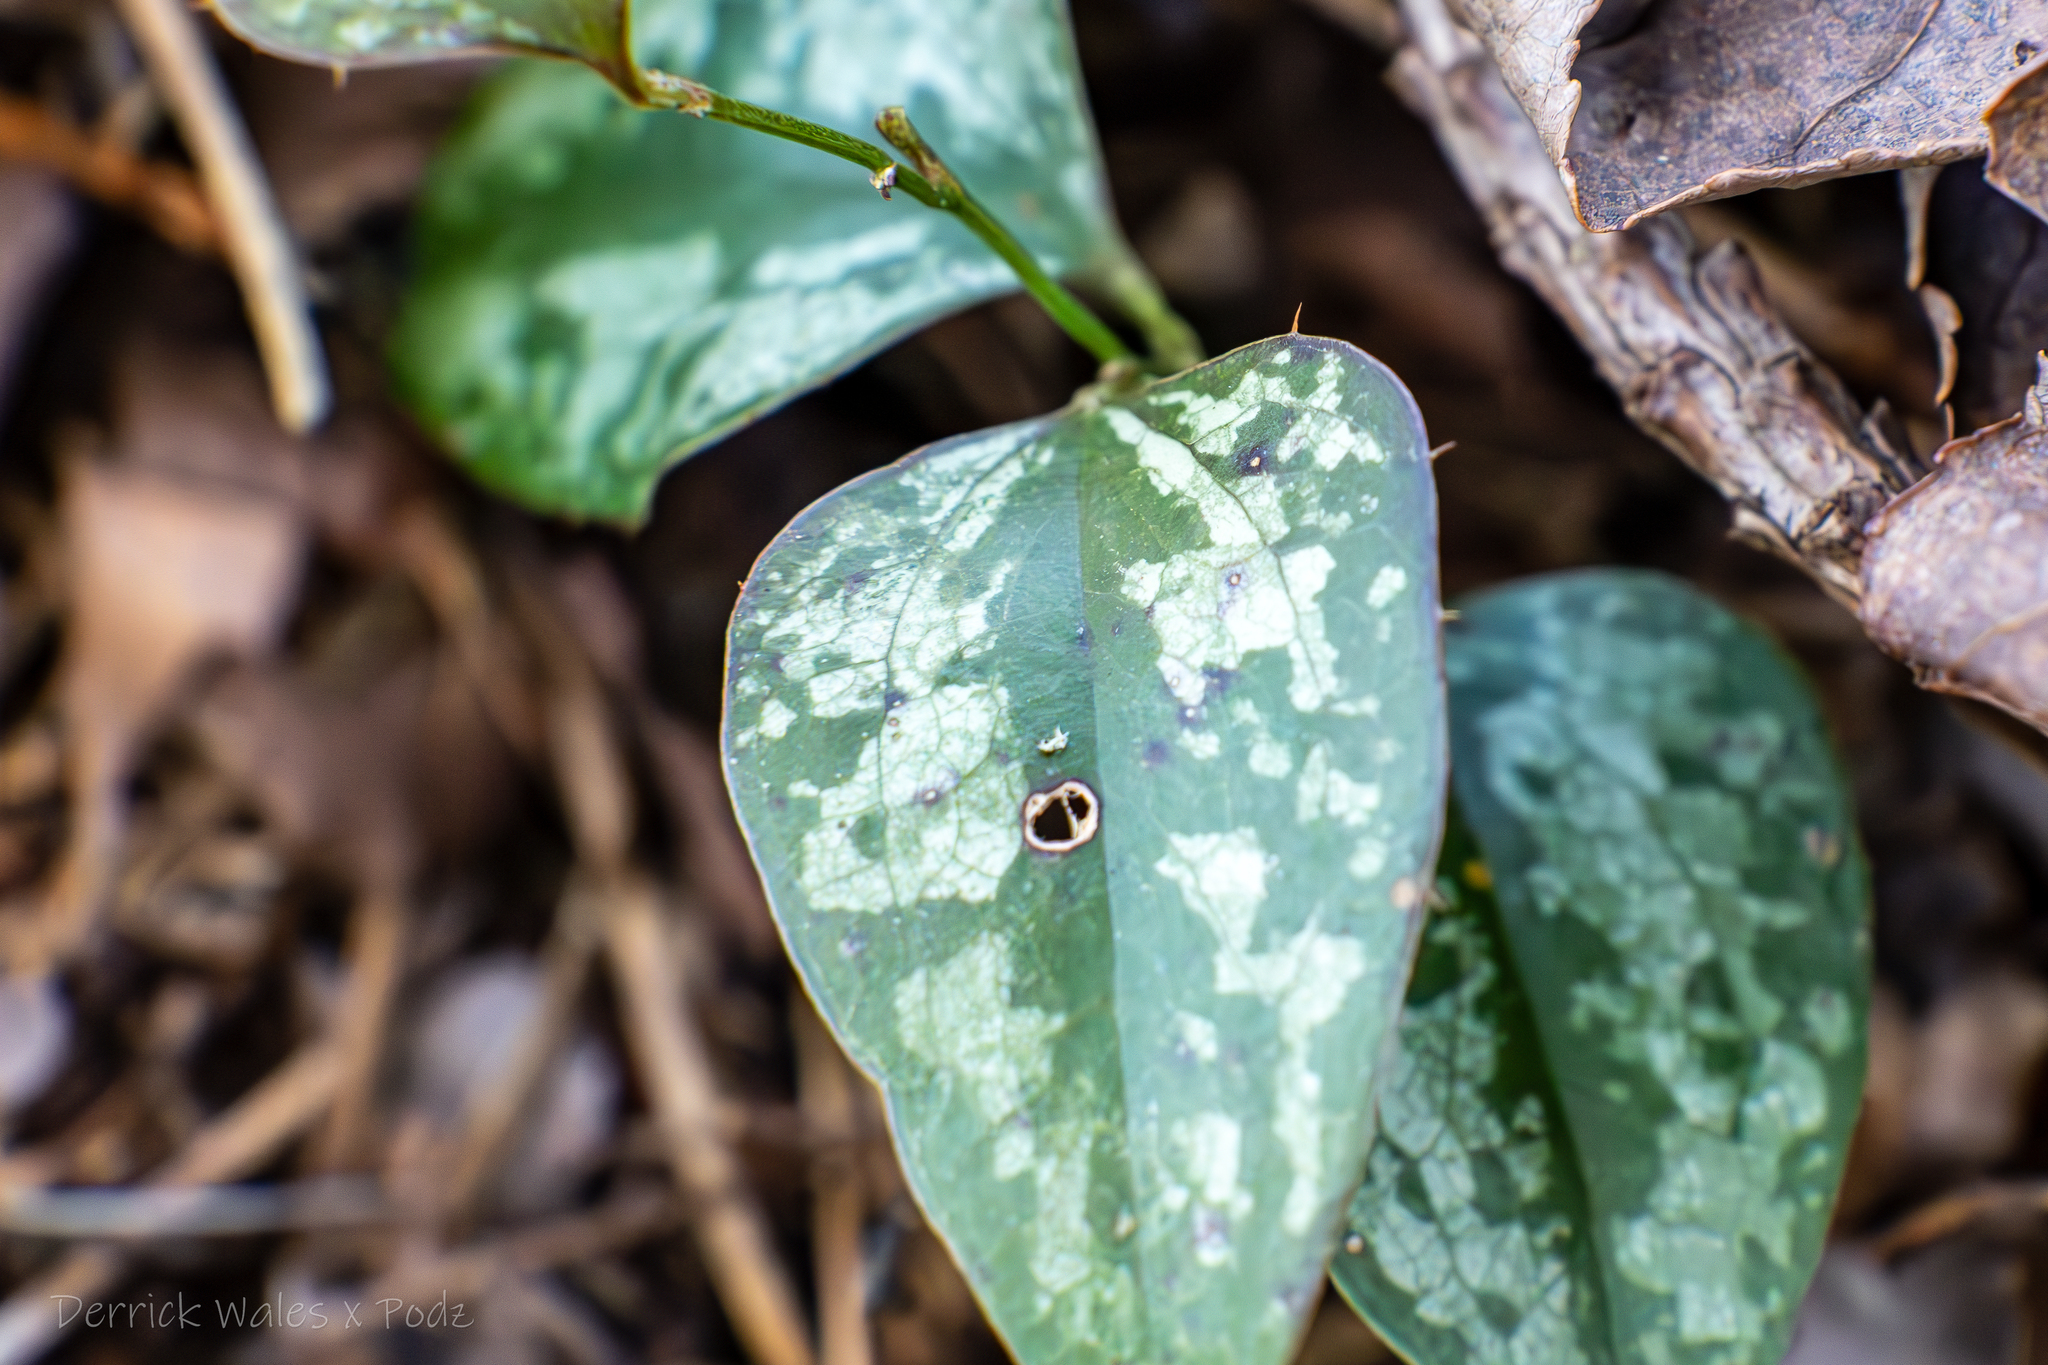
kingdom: Plantae
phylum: Tracheophyta
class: Liliopsida
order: Liliales
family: Smilacaceae
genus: Smilax
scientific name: Smilax bona-nox
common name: Catbrier
